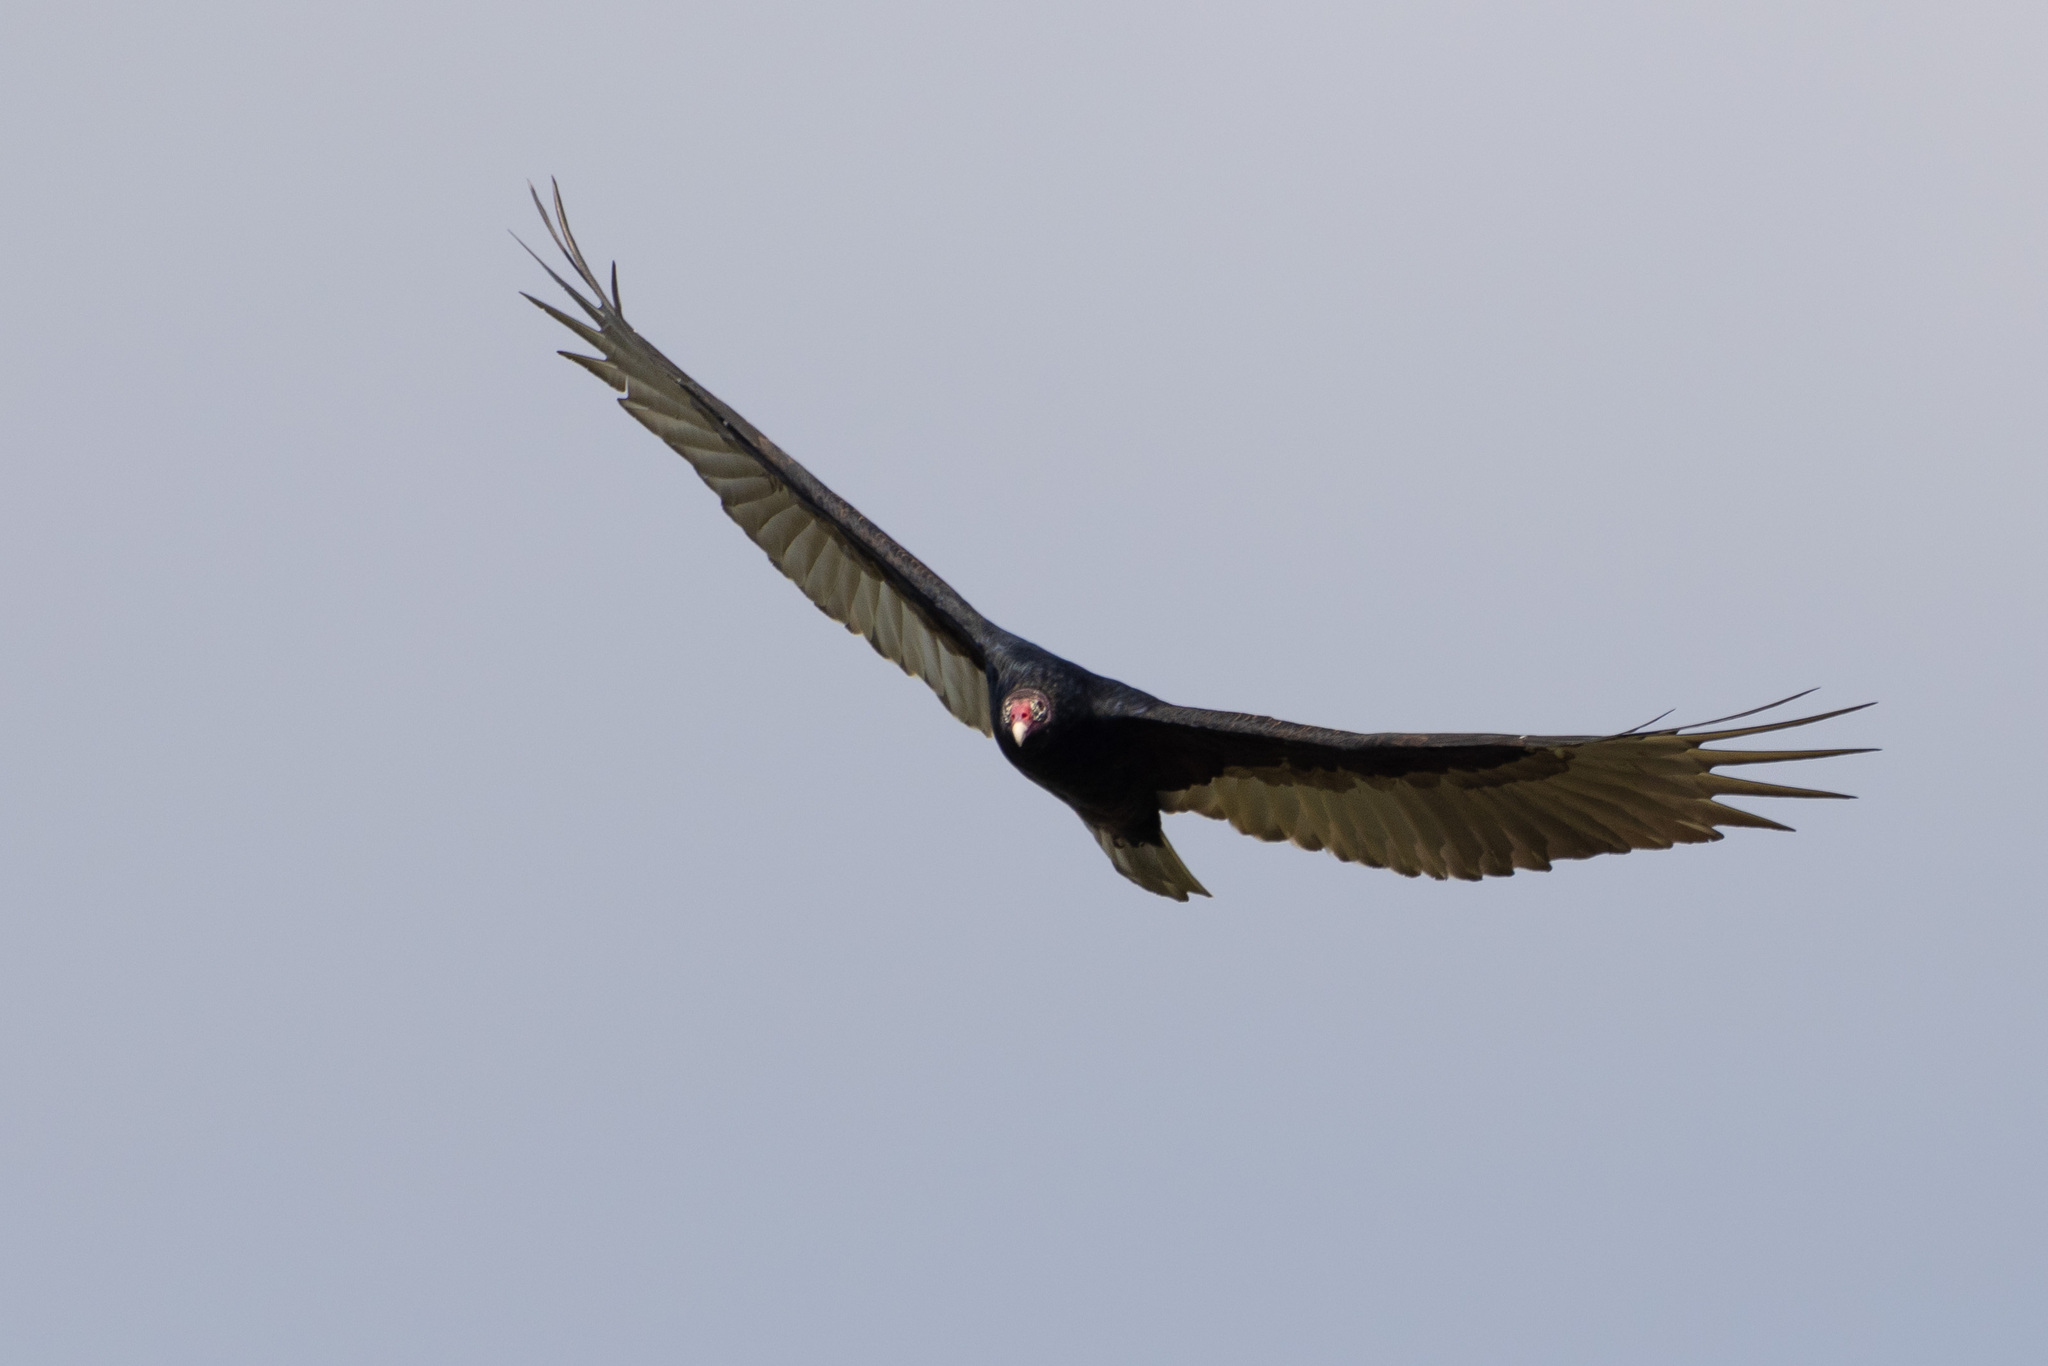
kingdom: Animalia
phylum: Chordata
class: Aves
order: Accipitriformes
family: Cathartidae
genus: Cathartes
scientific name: Cathartes aura
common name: Turkey vulture
